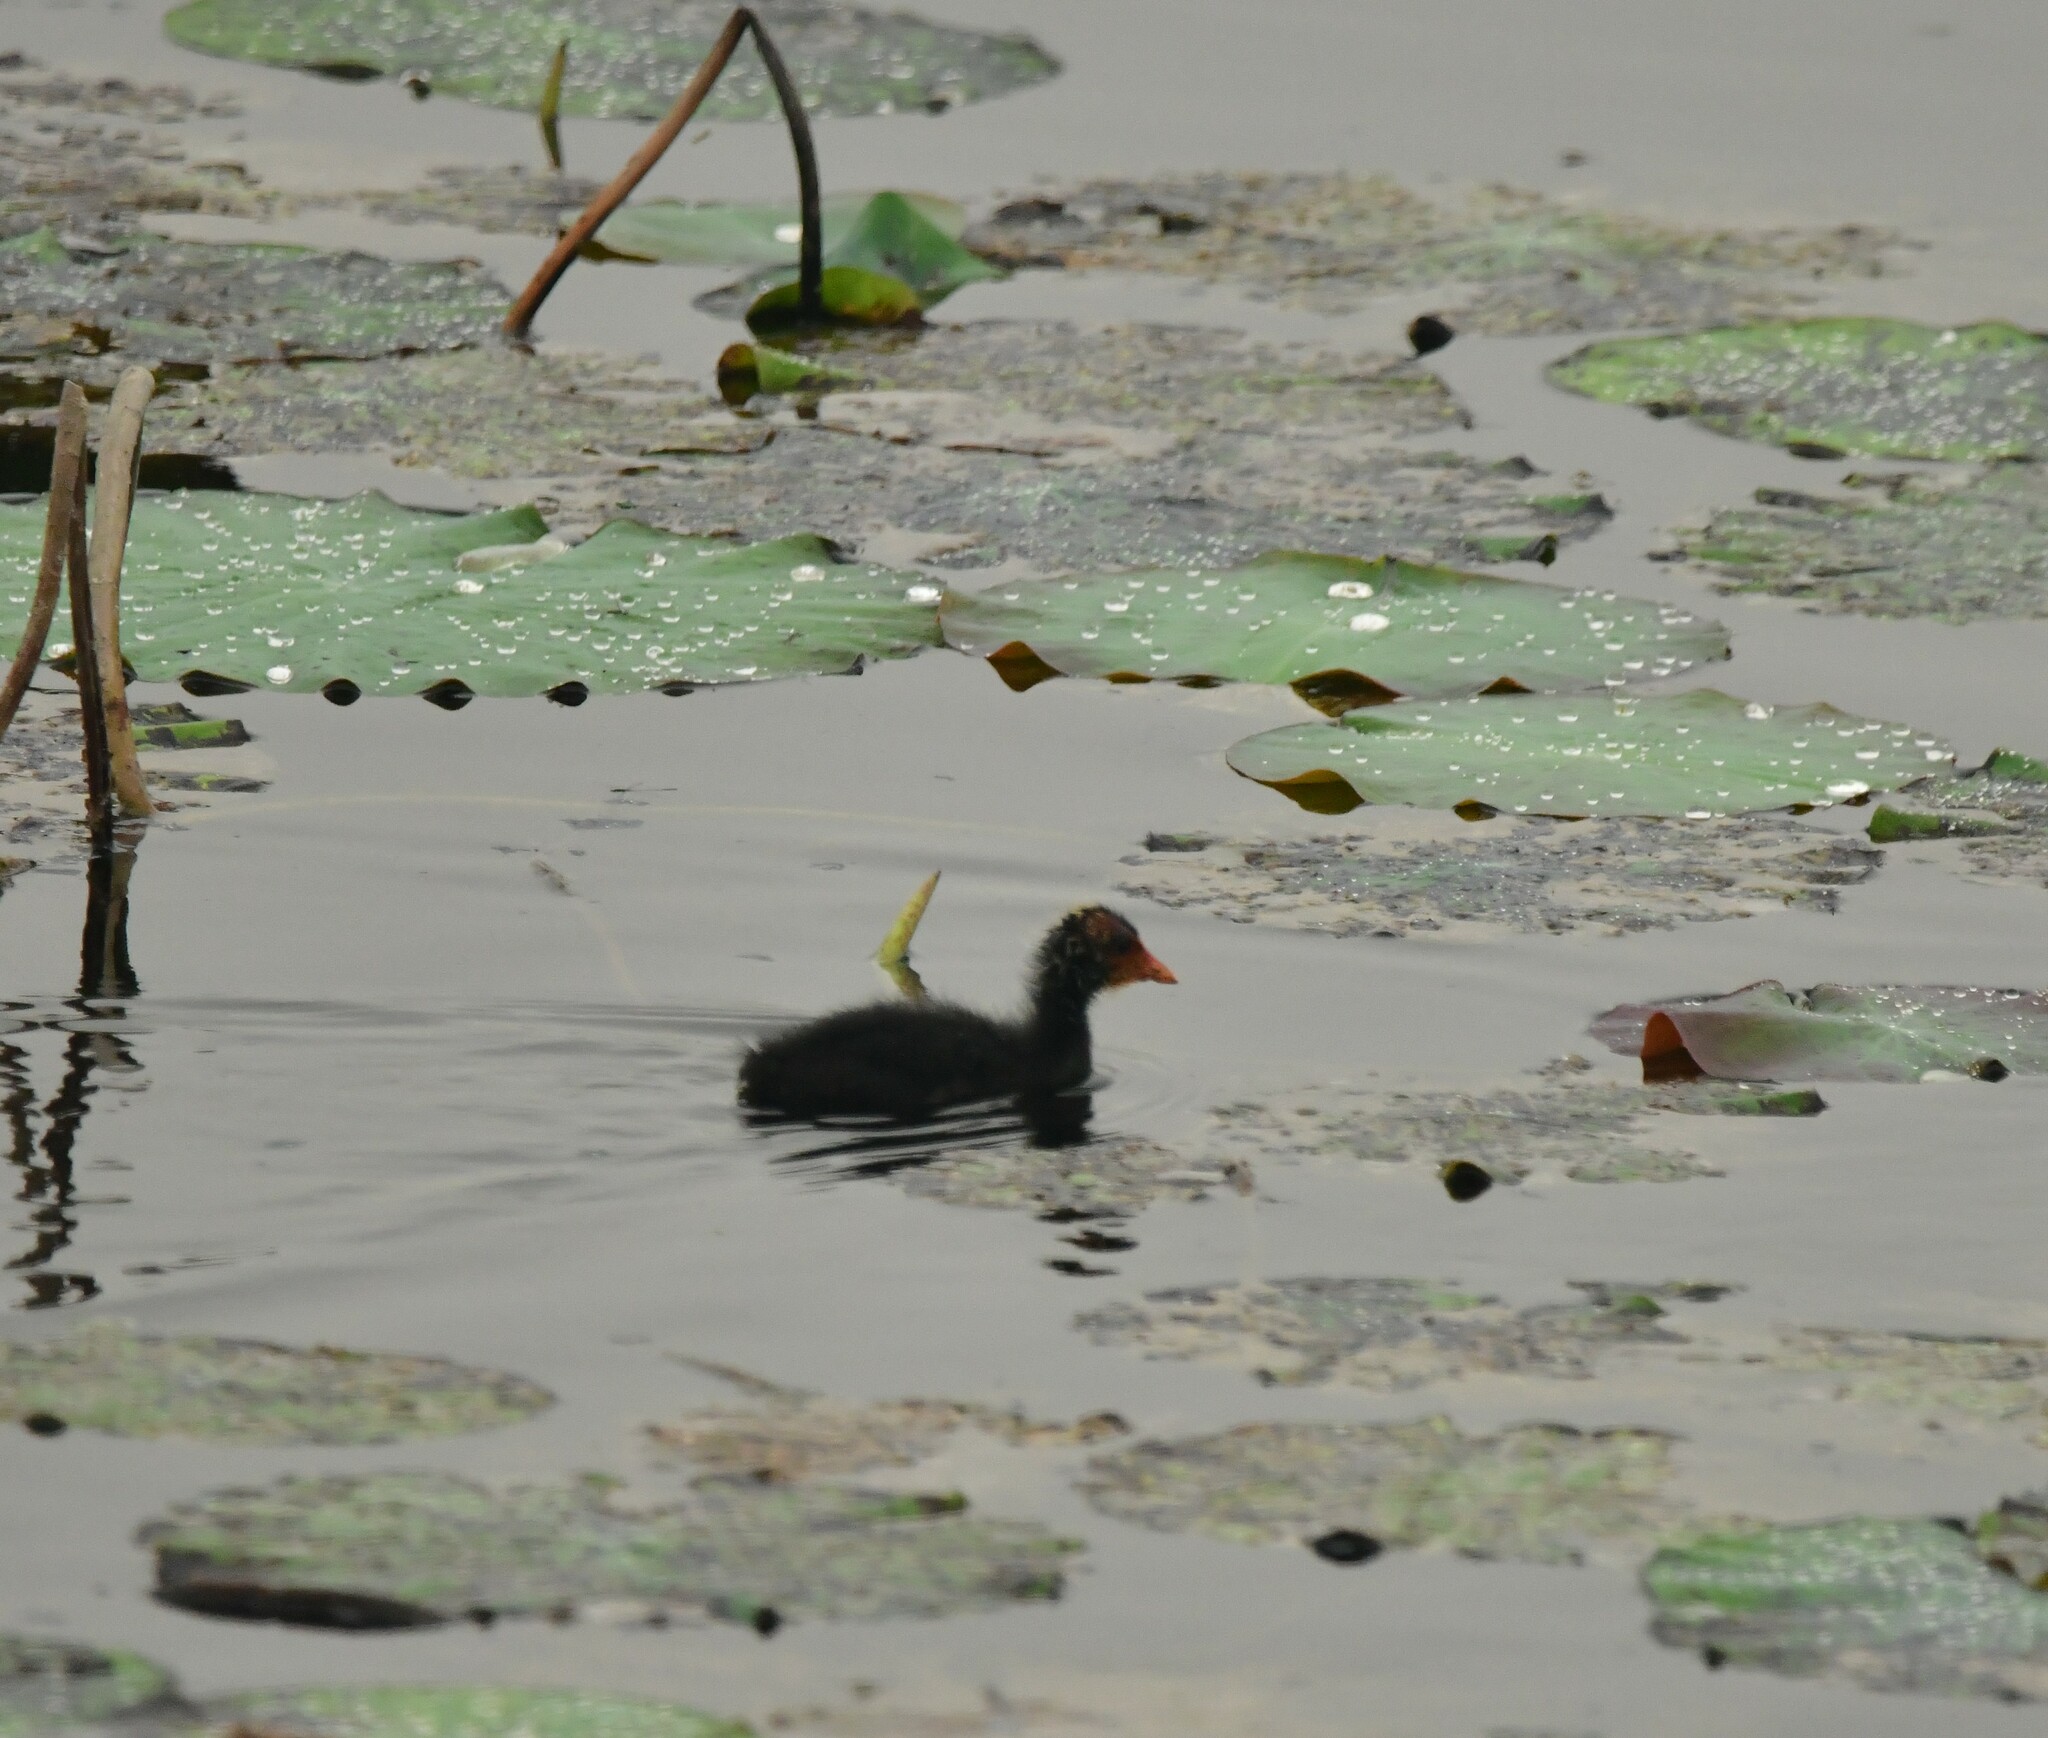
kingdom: Animalia
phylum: Chordata
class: Aves
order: Gruiformes
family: Rallidae
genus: Fulica
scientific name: Fulica atra
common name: Eurasian coot
